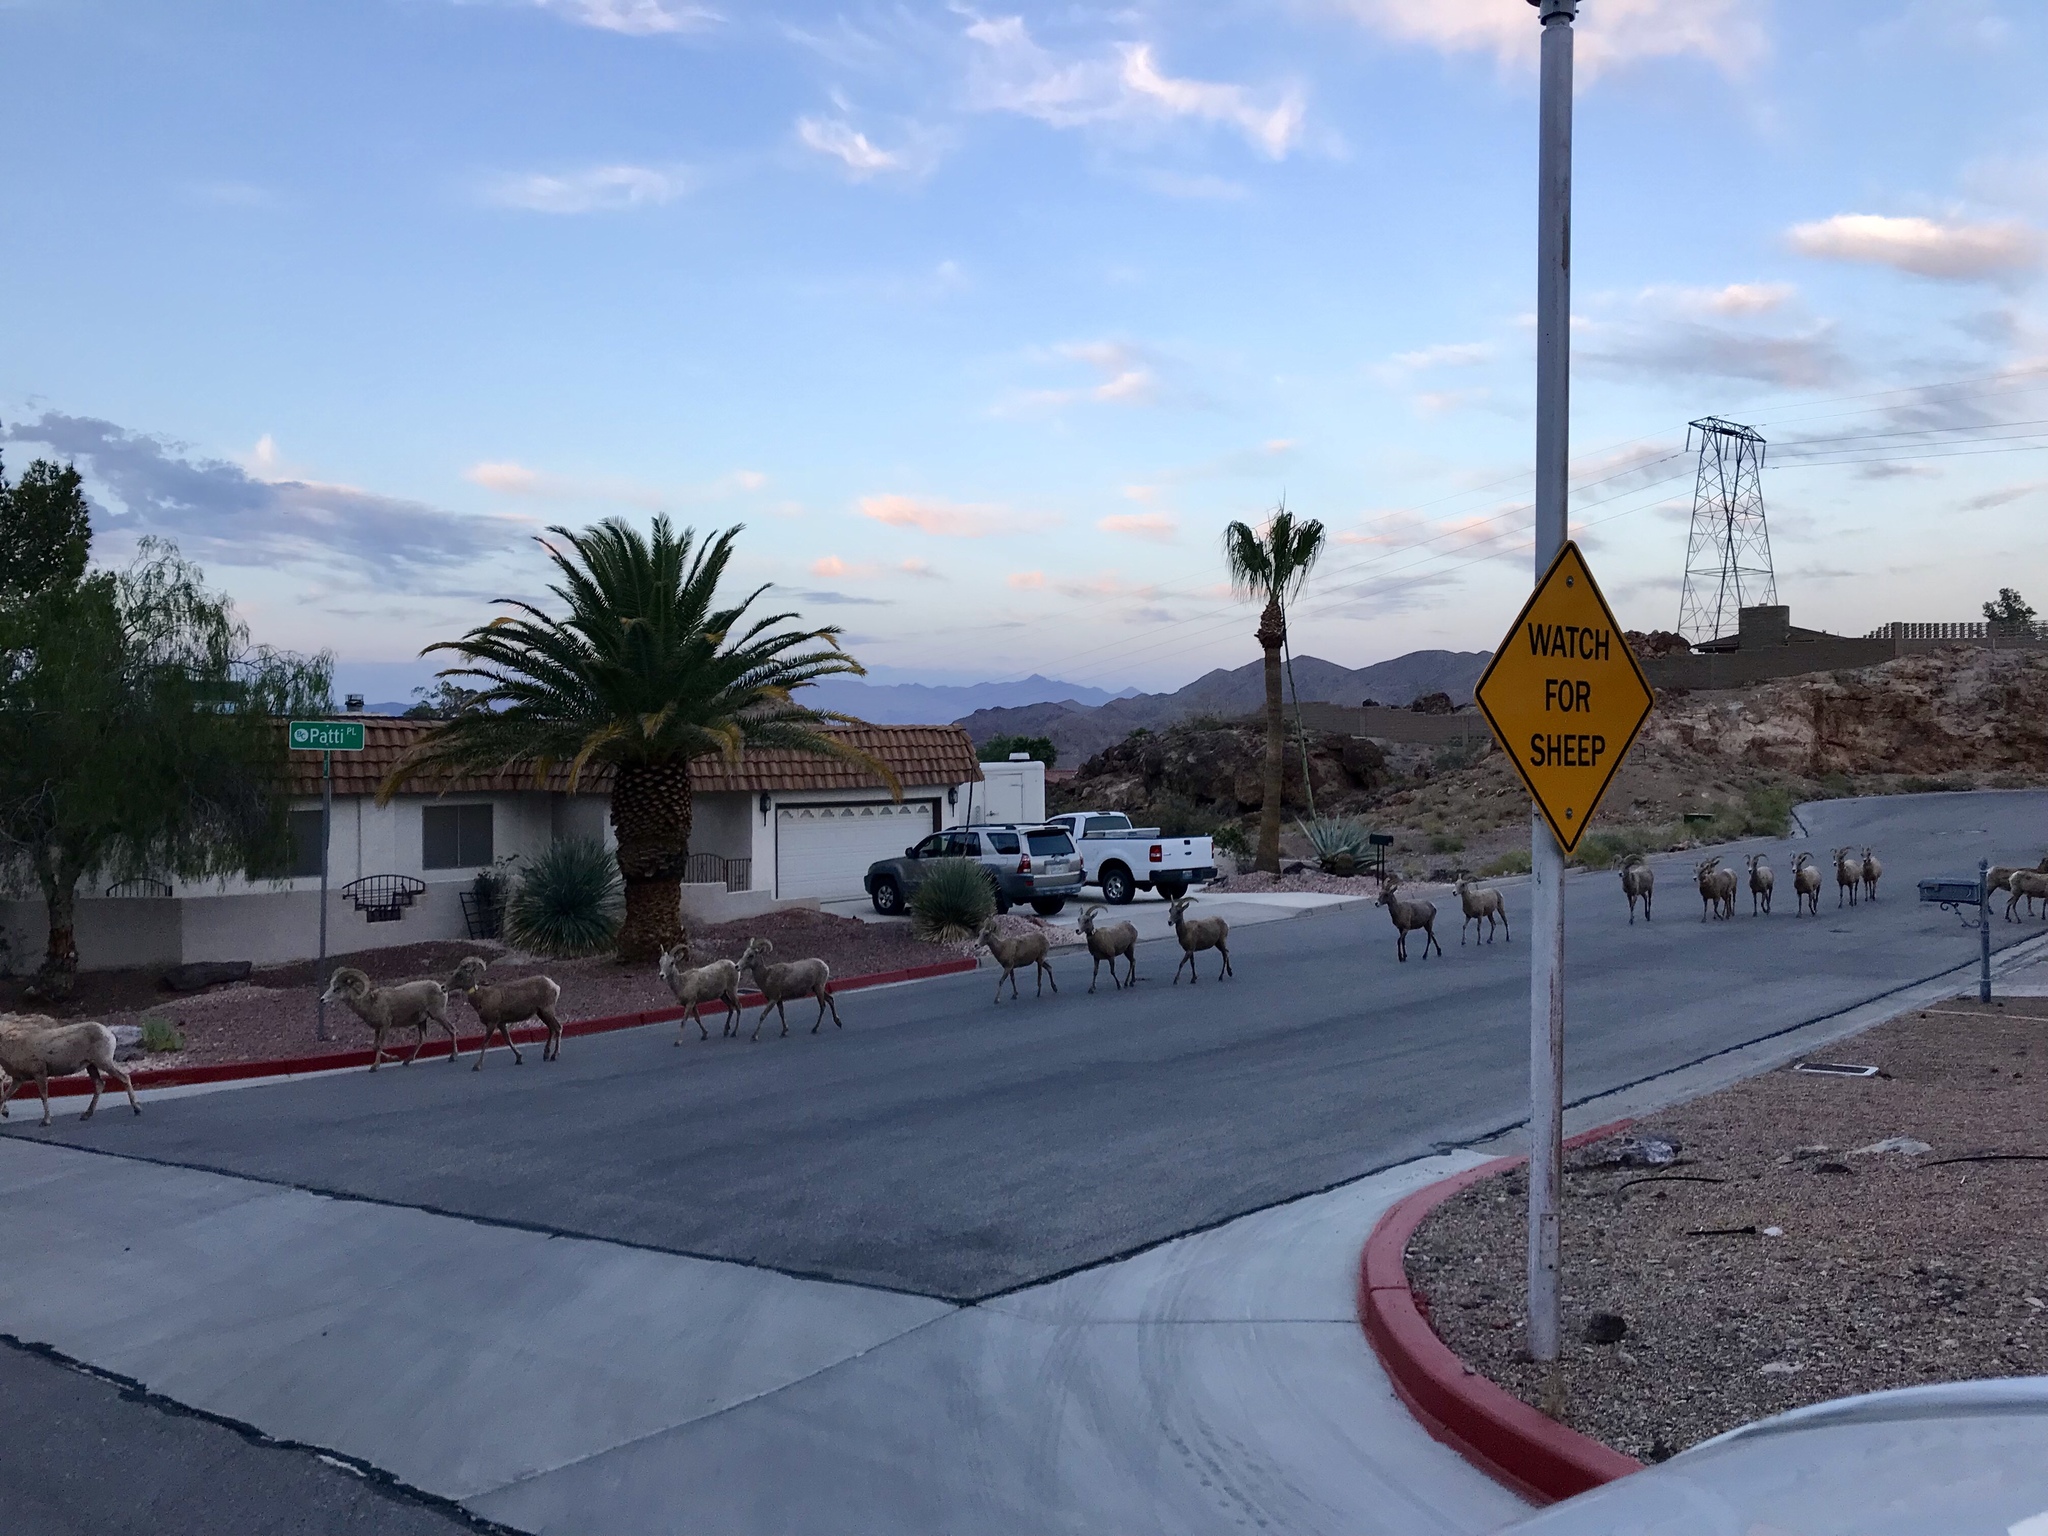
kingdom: Animalia
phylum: Chordata
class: Mammalia
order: Artiodactyla
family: Bovidae
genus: Ovis
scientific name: Ovis canadensis
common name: Bighorn sheep
